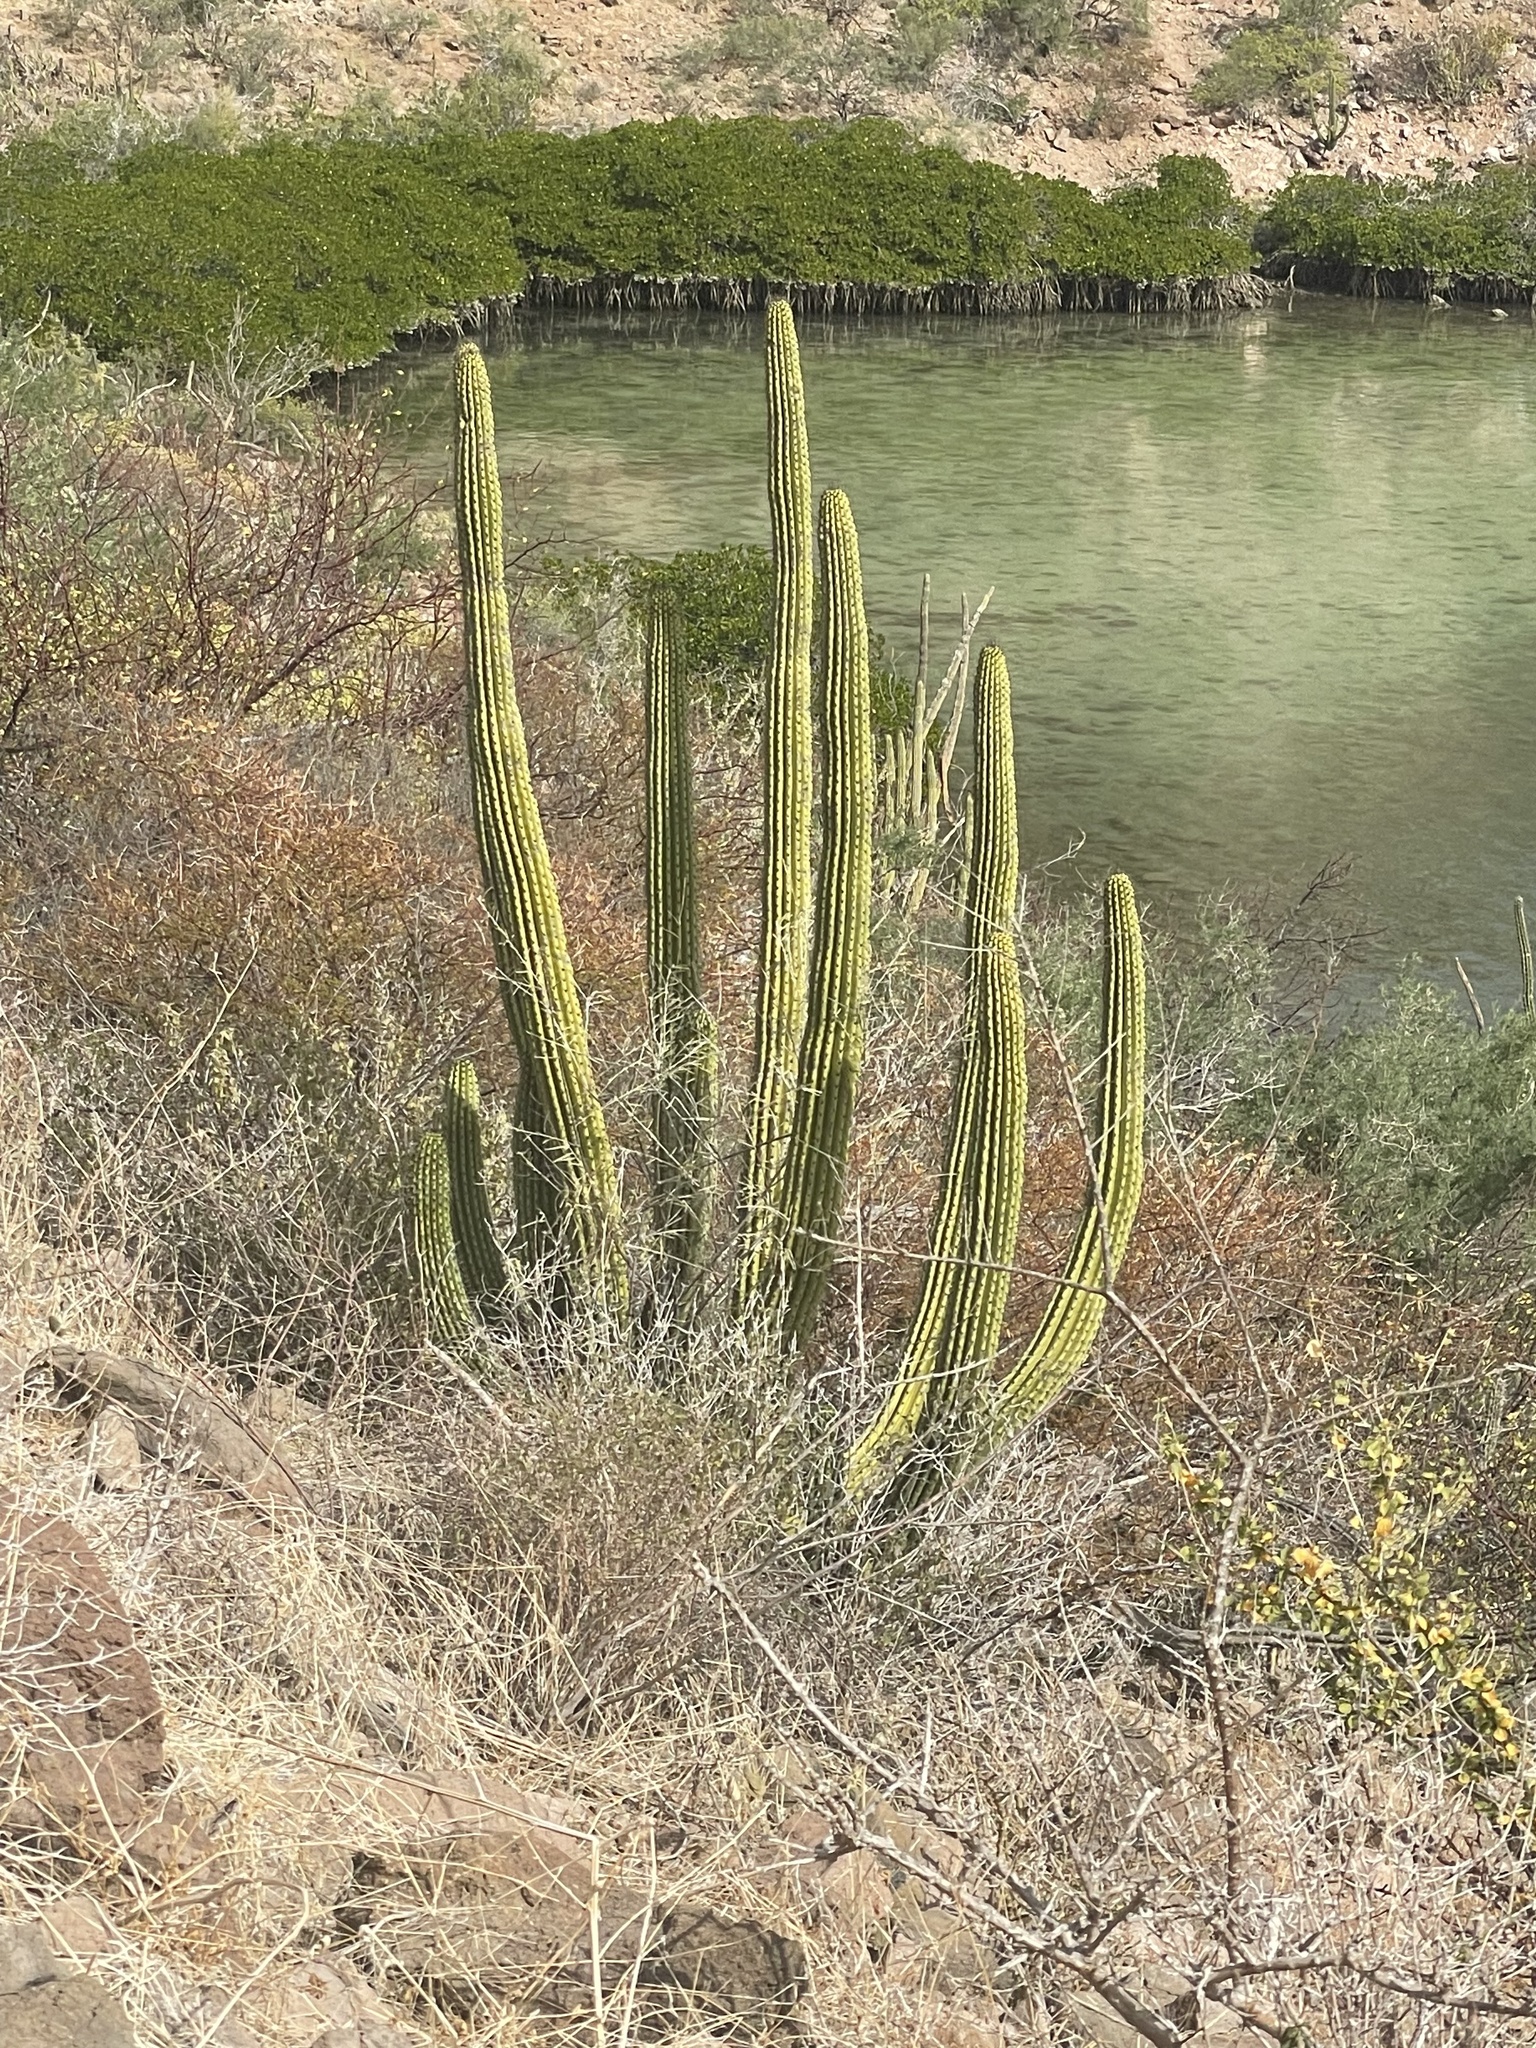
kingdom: Plantae
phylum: Tracheophyta
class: Magnoliopsida
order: Caryophyllales
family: Cactaceae
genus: Stenocereus
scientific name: Stenocereus thurberi
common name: Organ pipe cactus
